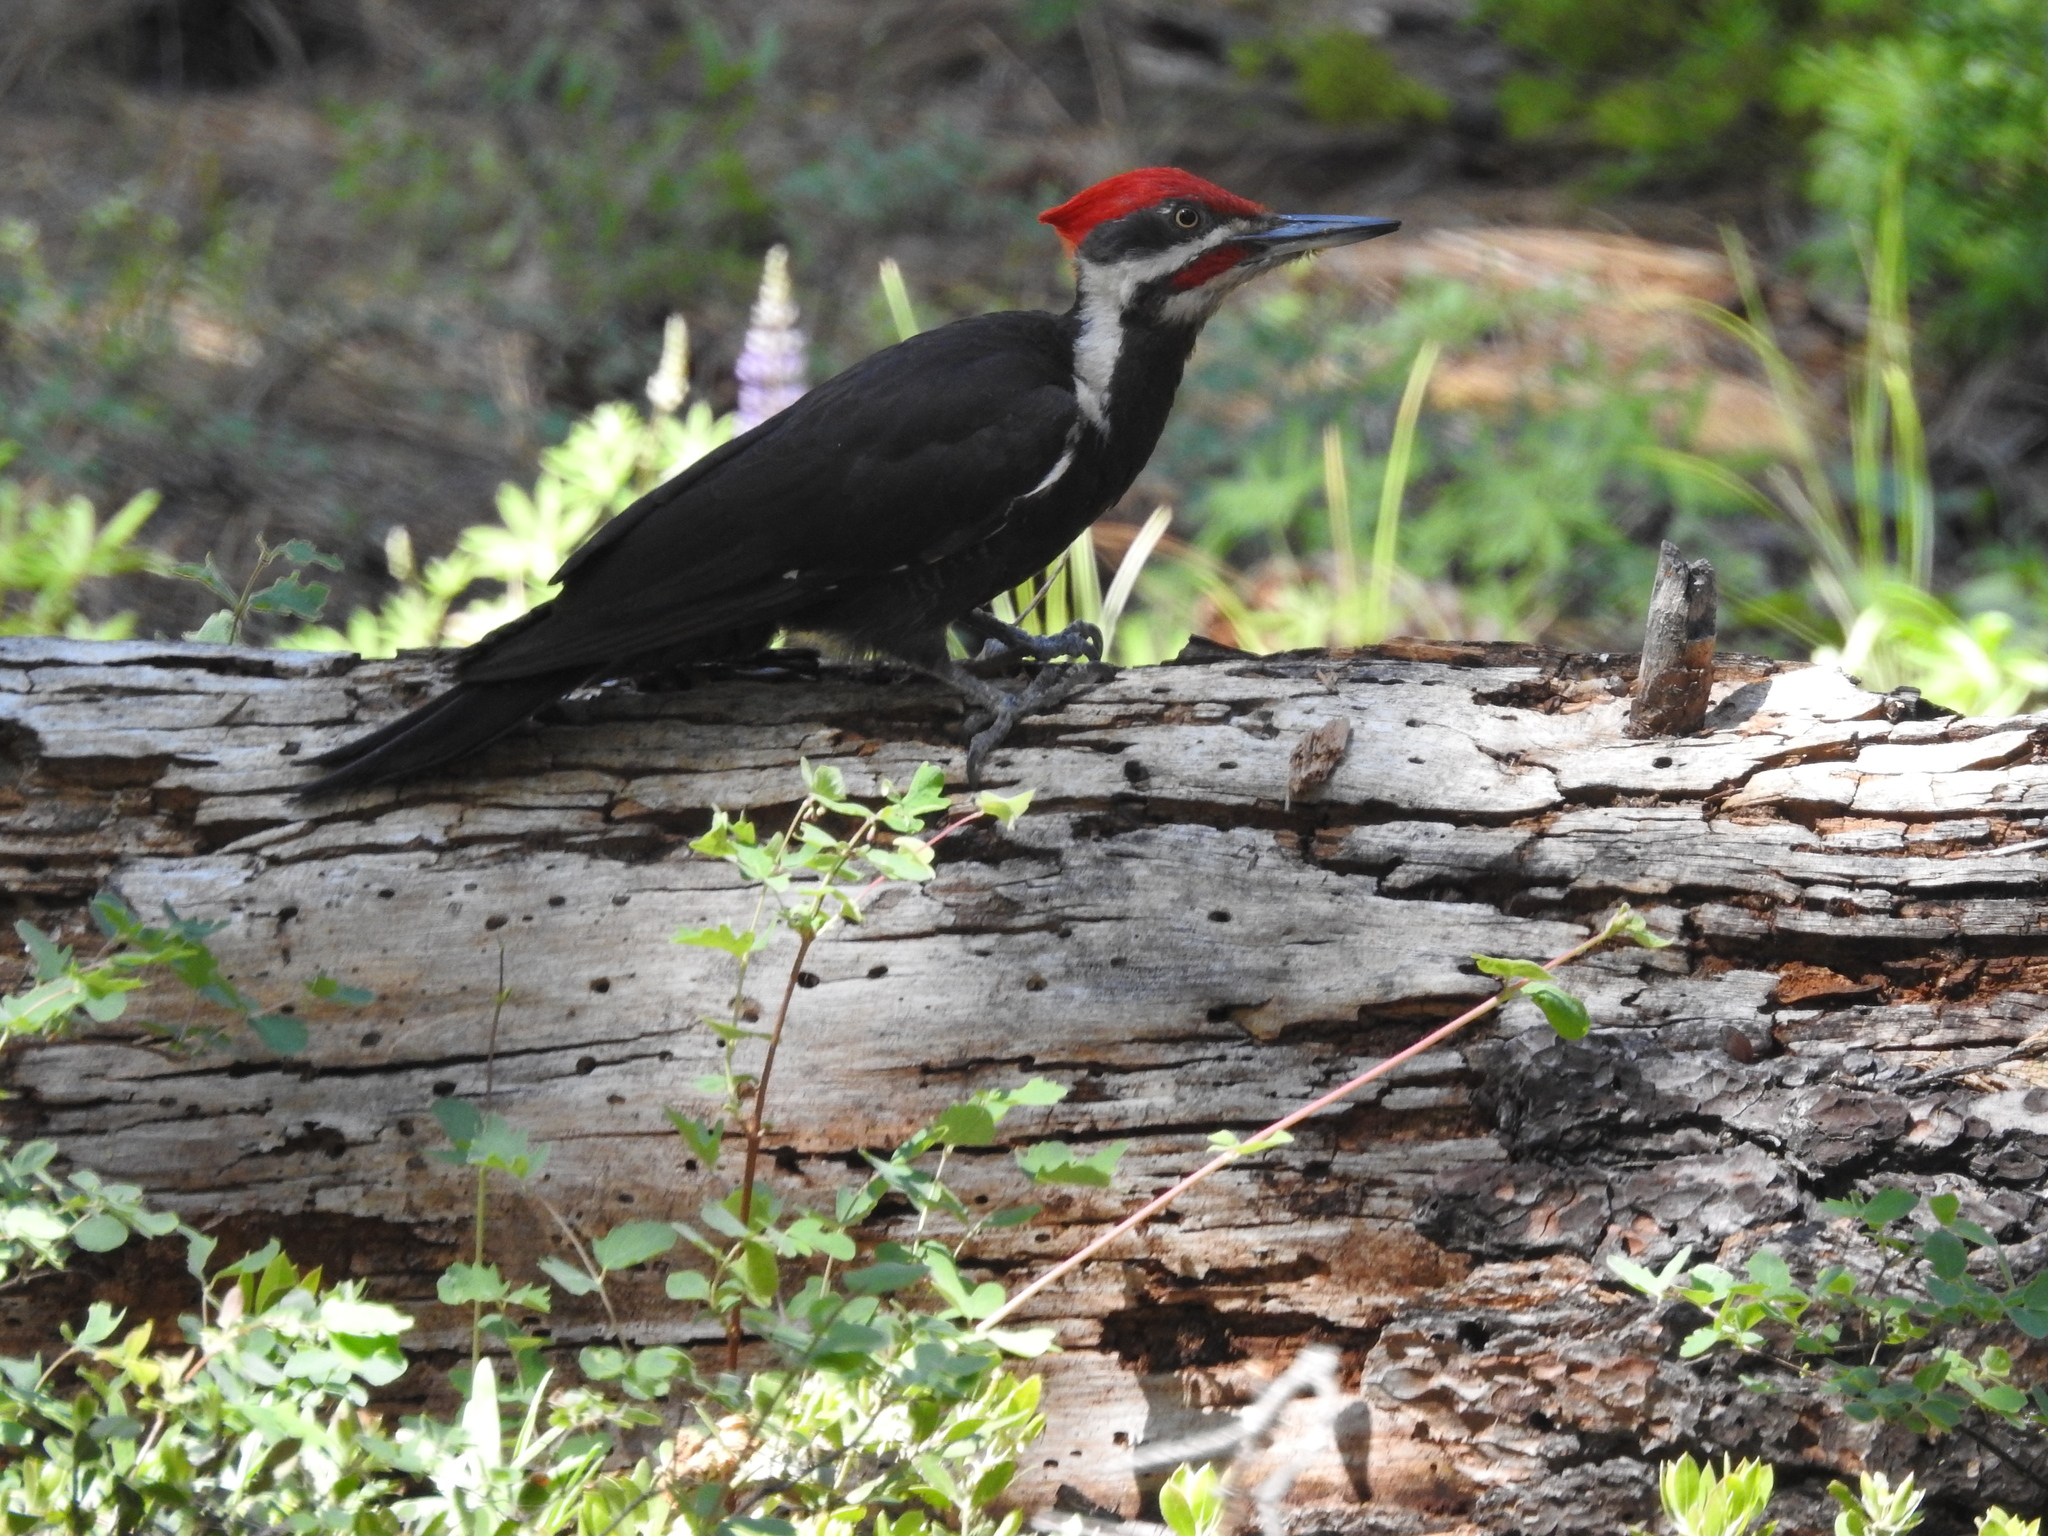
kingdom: Animalia
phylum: Chordata
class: Aves
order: Piciformes
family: Picidae
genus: Dryocopus
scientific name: Dryocopus pileatus
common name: Pileated woodpecker
